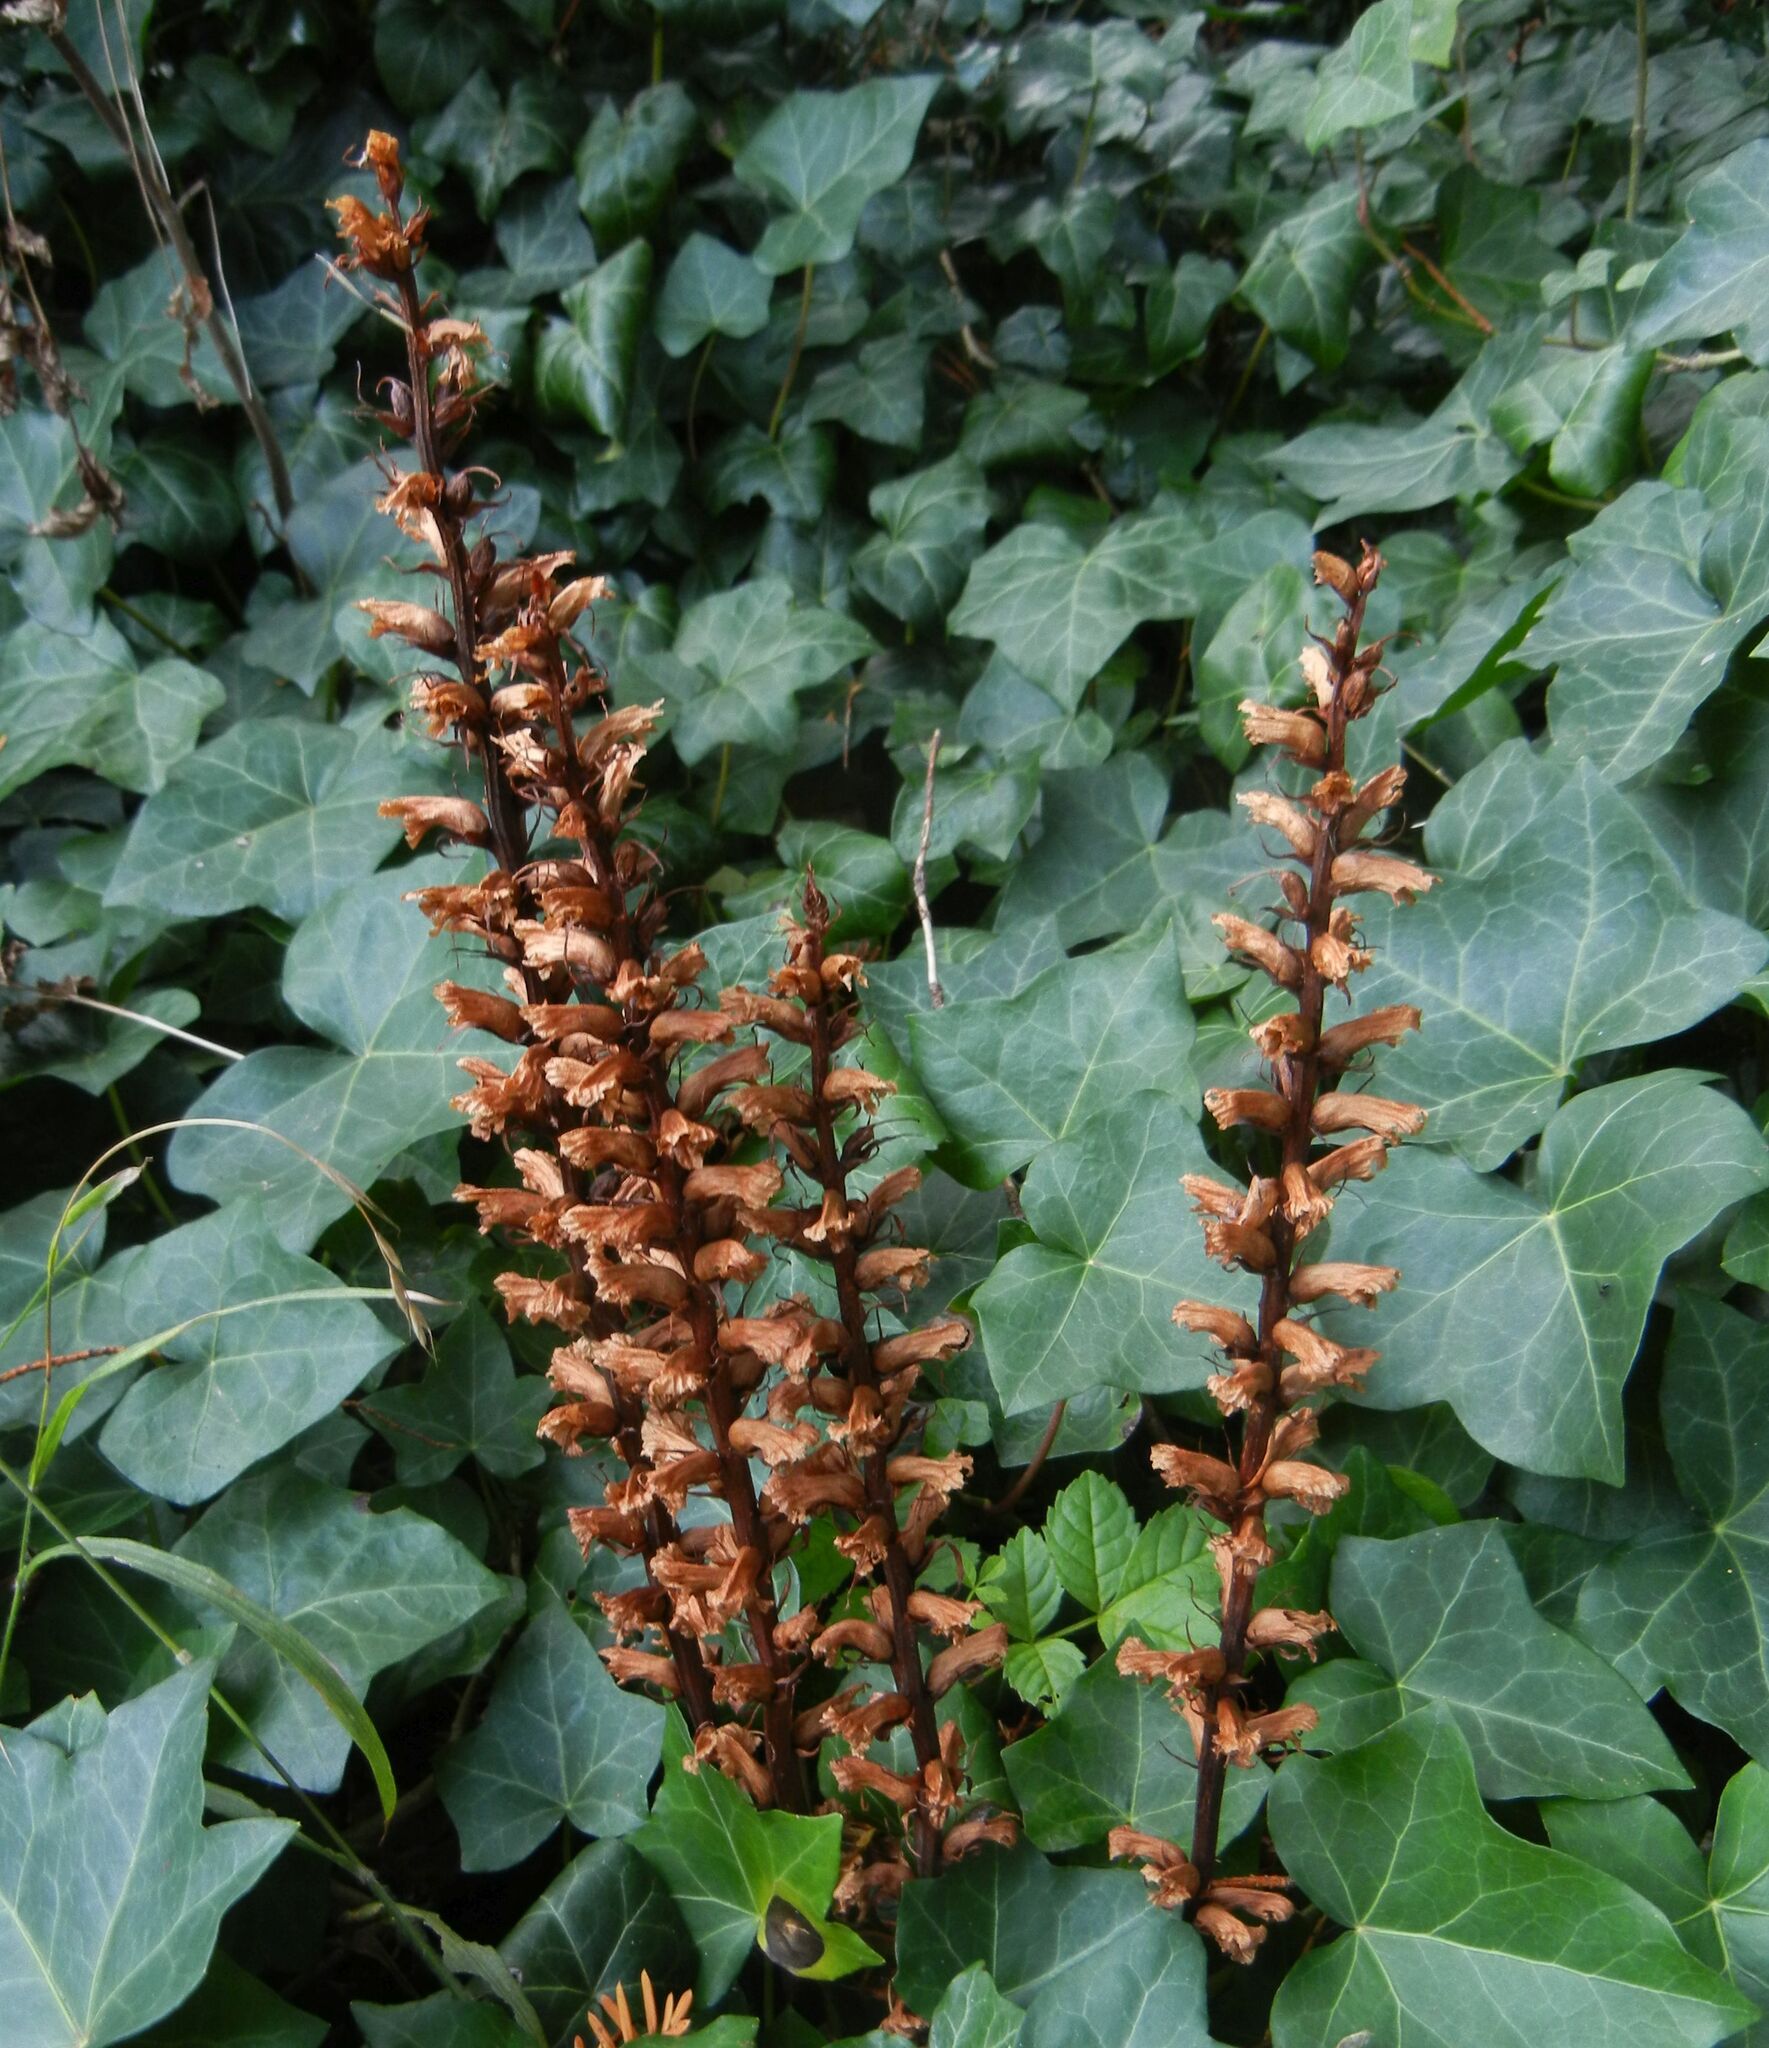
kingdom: Plantae
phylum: Tracheophyta
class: Magnoliopsida
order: Lamiales
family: Orobanchaceae
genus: Orobanche
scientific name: Orobanche hederae
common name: Ivy broomrape
